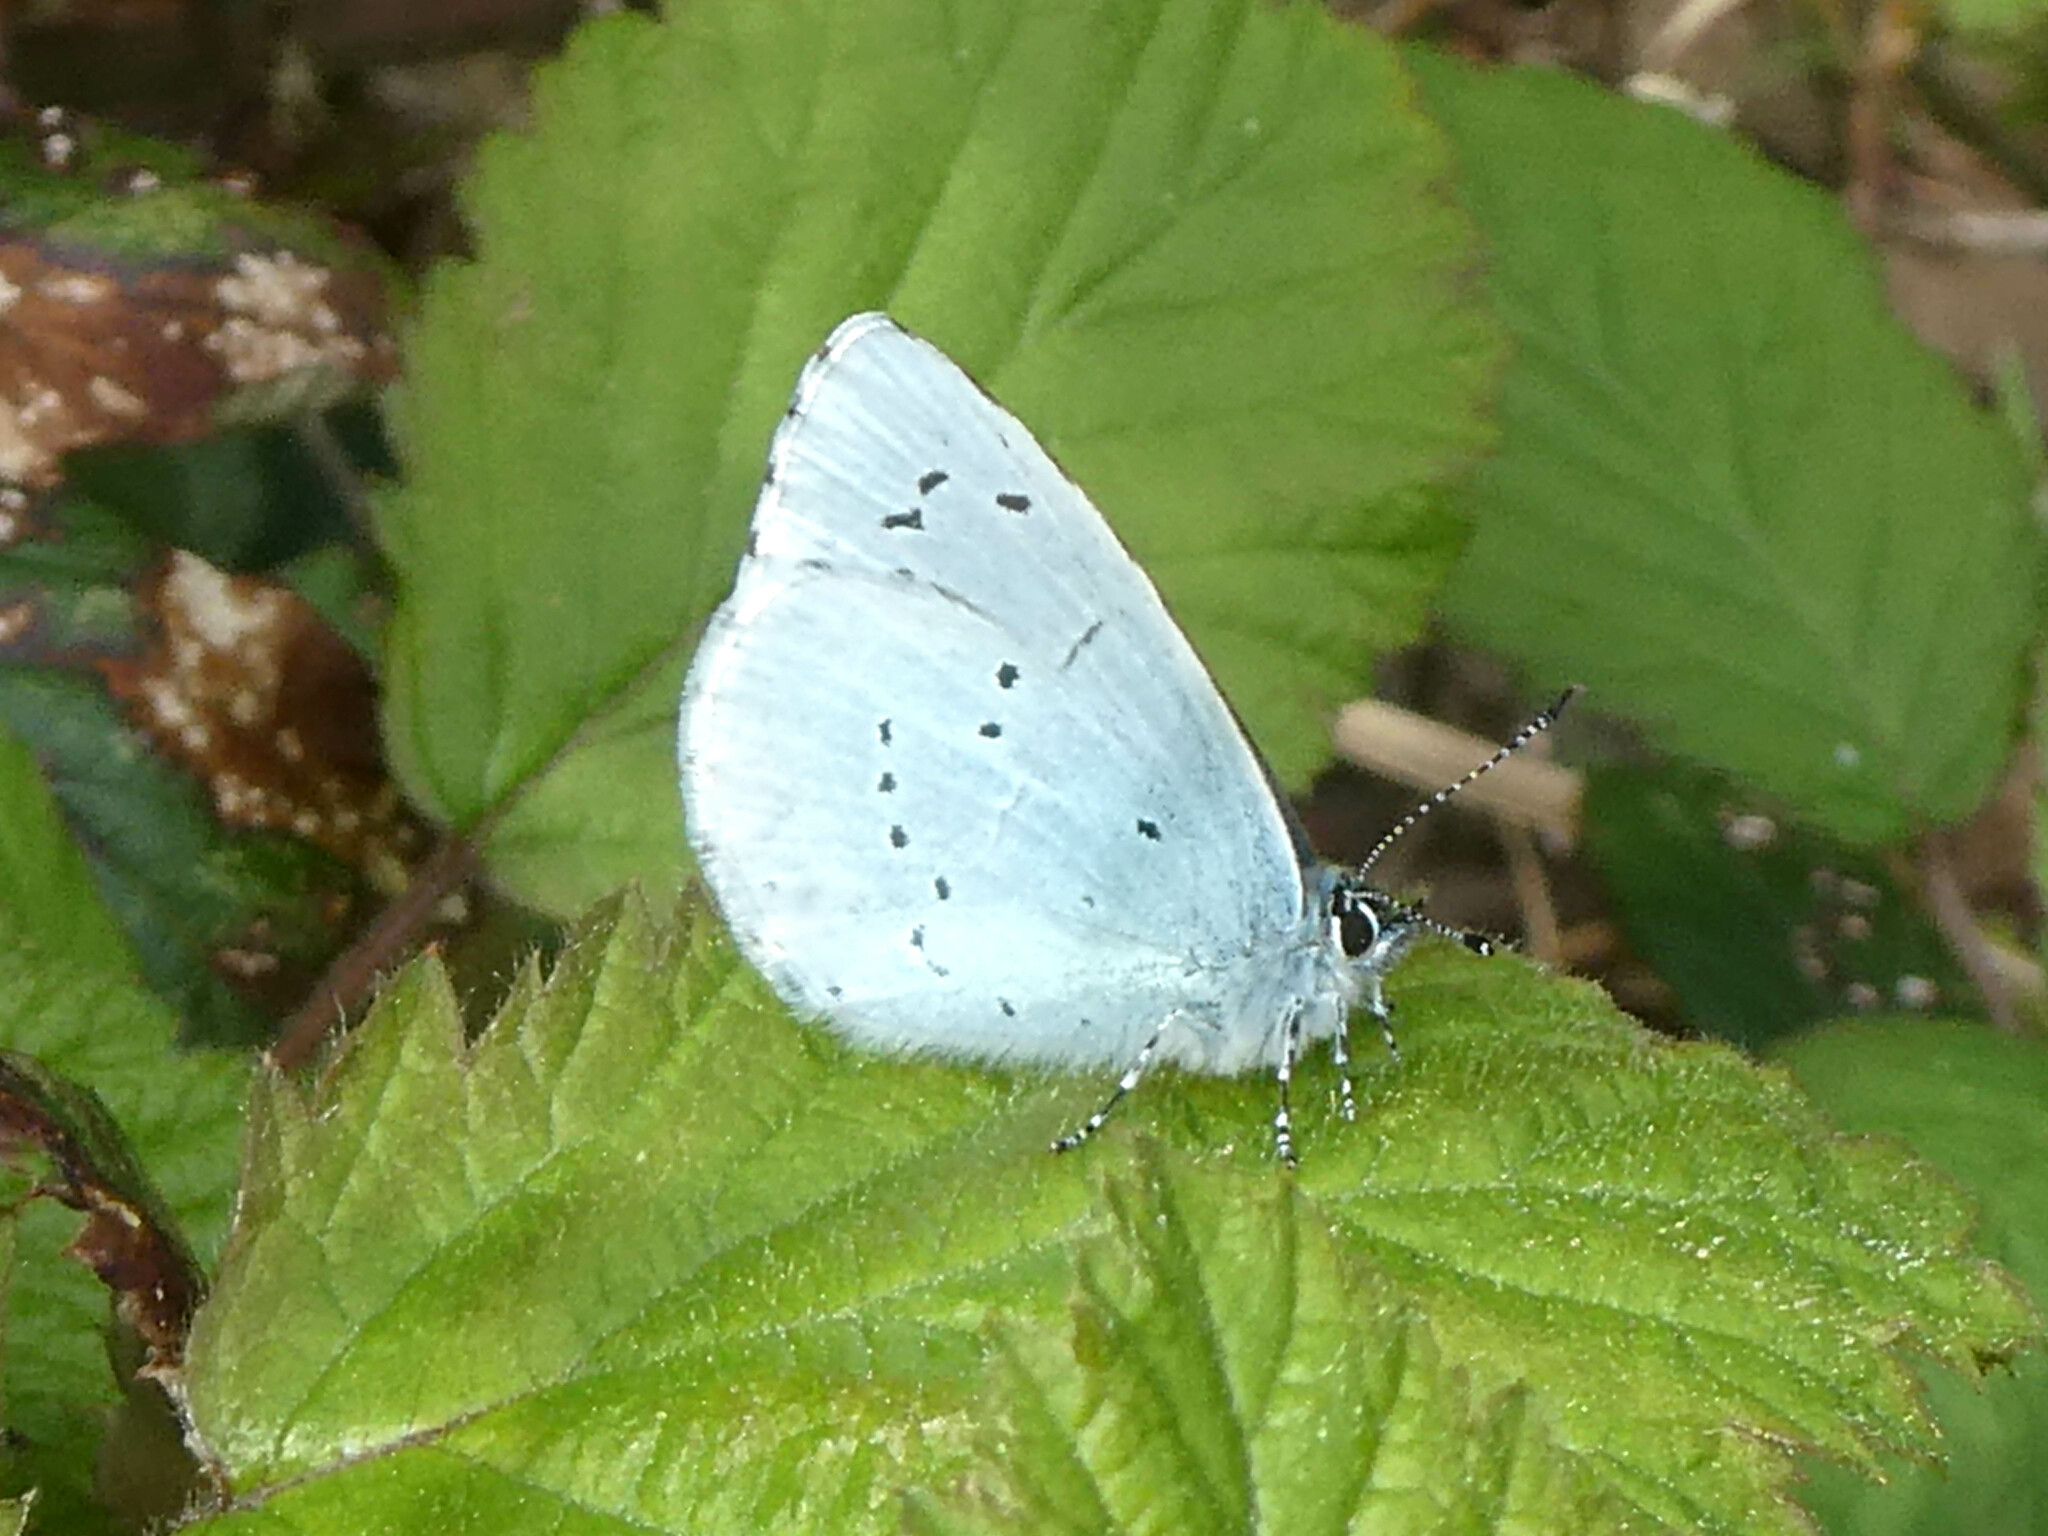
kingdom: Animalia
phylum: Arthropoda
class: Insecta
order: Lepidoptera
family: Lycaenidae
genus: Celastrina
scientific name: Celastrina argiolus
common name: Holly blue
